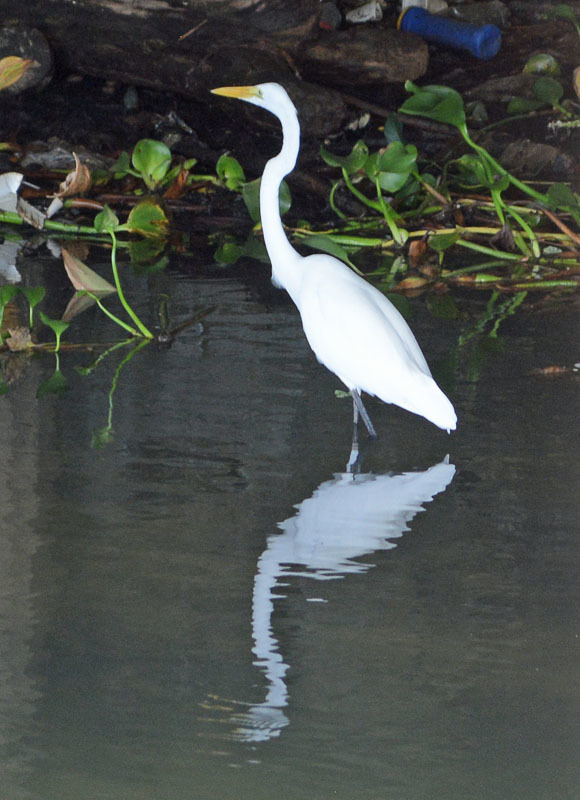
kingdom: Animalia
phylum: Chordata
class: Aves
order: Pelecaniformes
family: Ardeidae
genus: Ardea
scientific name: Ardea alba
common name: Great egret
